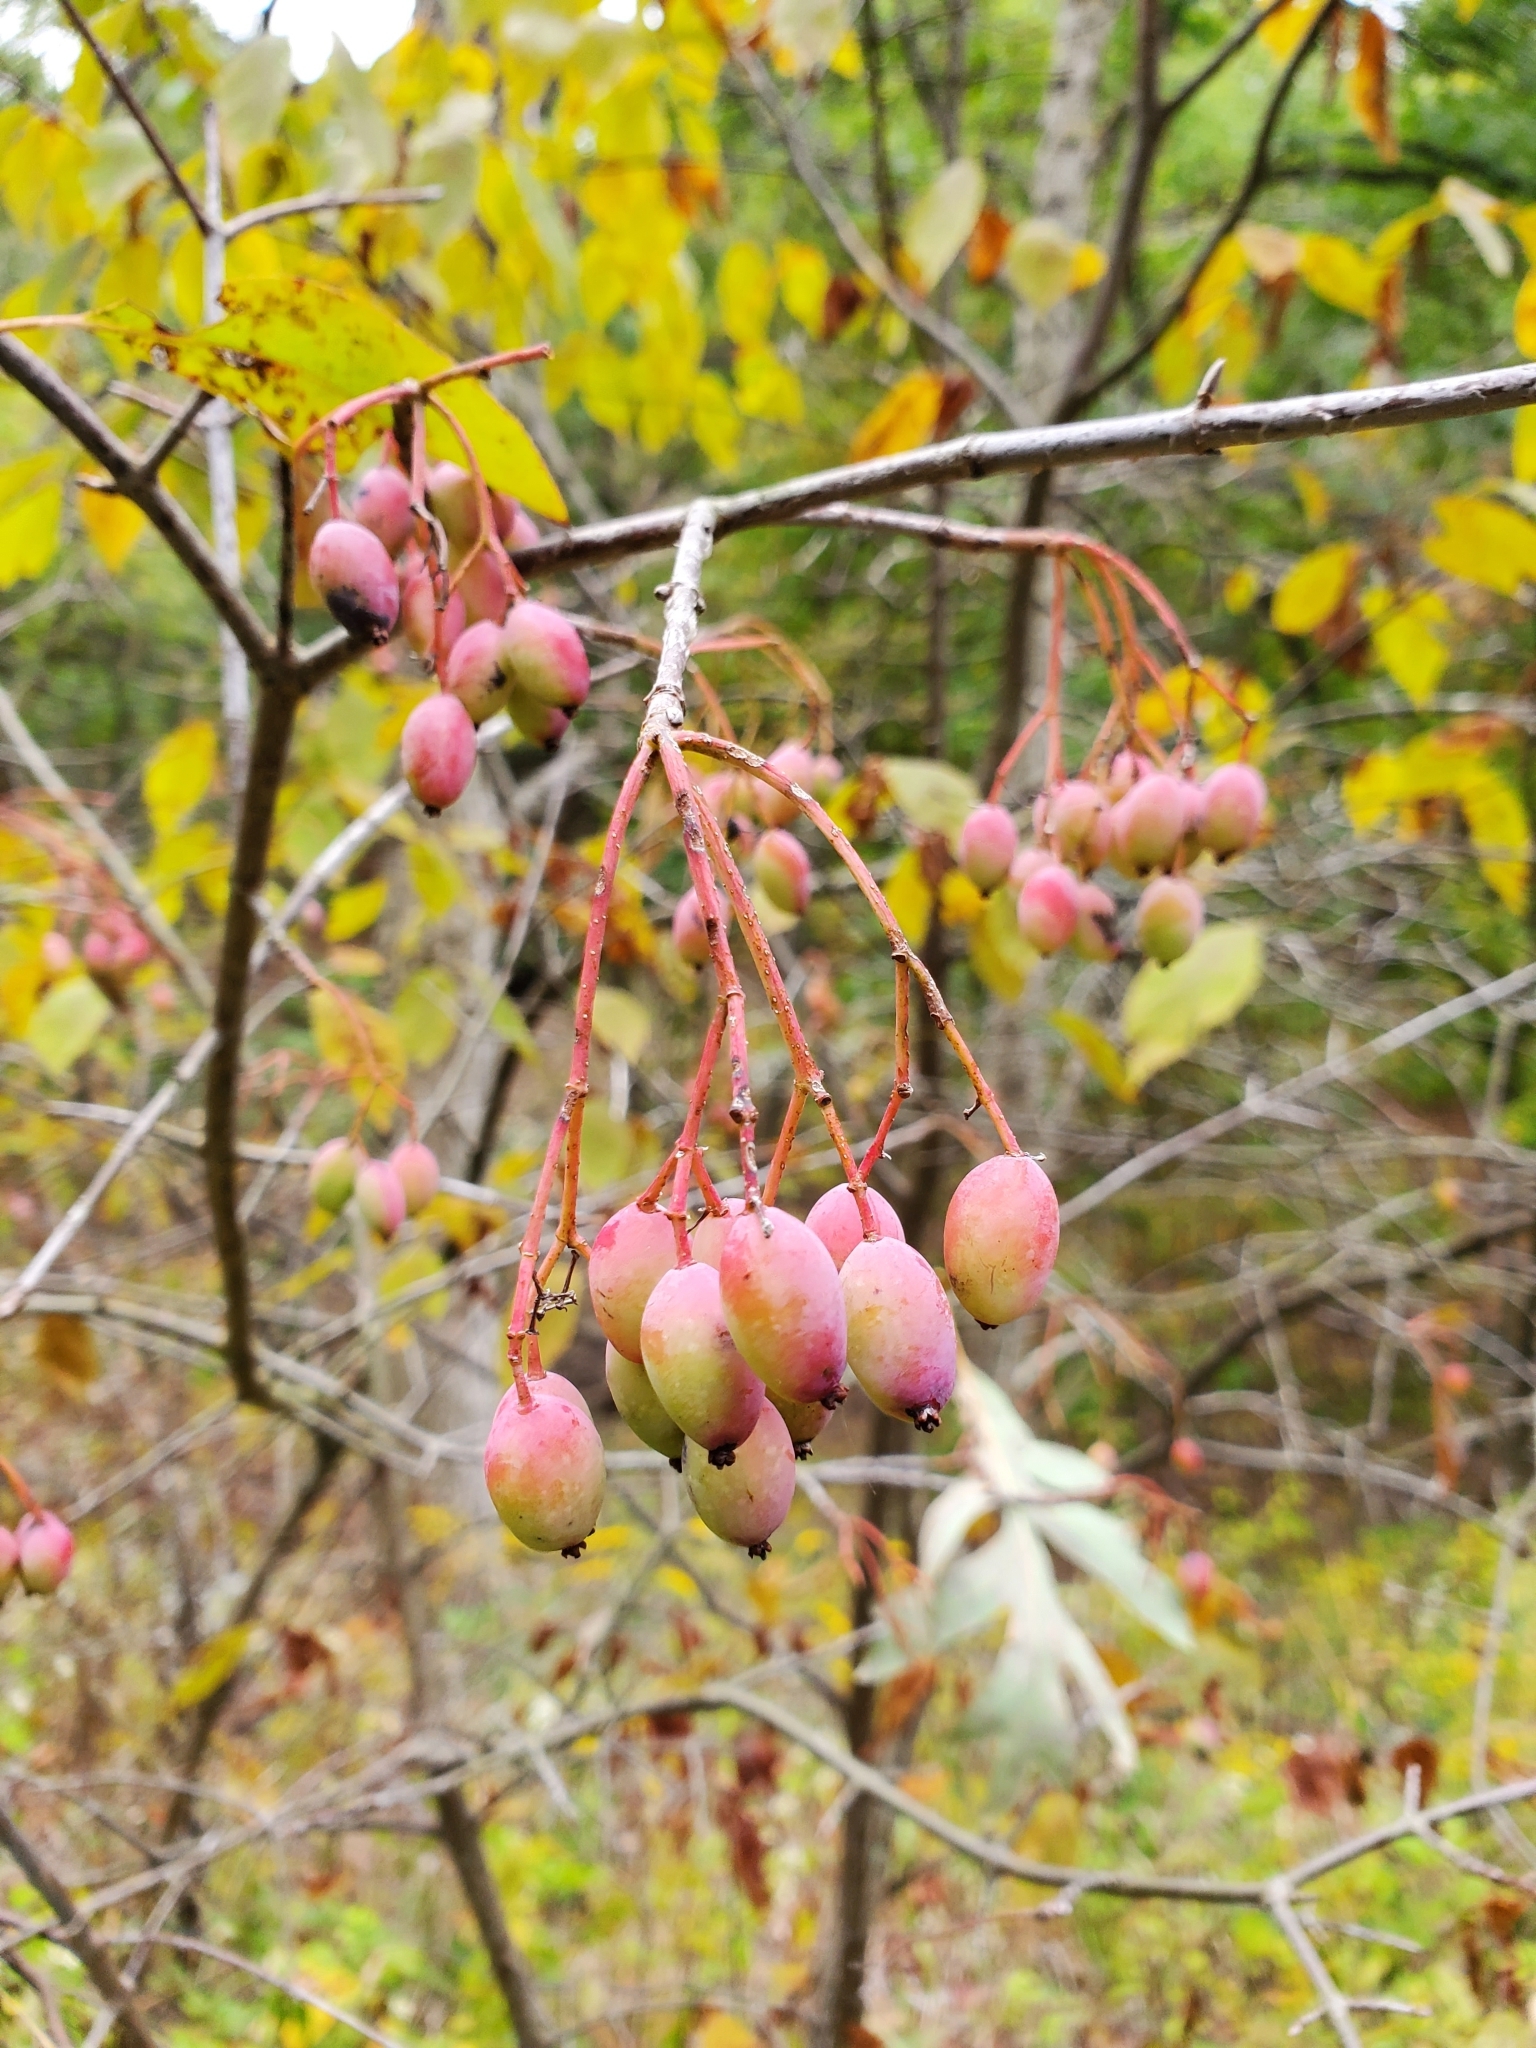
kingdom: Plantae
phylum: Tracheophyta
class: Magnoliopsida
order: Dipsacales
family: Viburnaceae
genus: Viburnum
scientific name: Viburnum prunifolium
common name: Black haw
